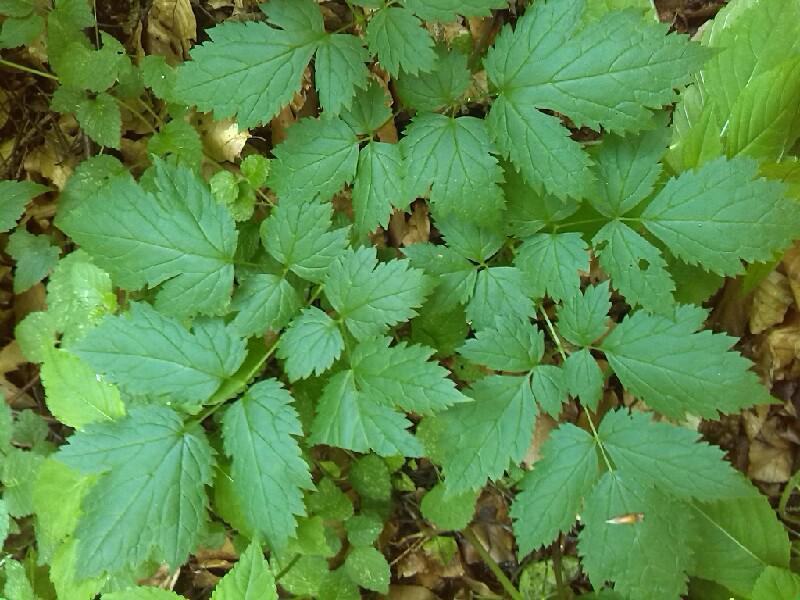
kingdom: Plantae
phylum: Tracheophyta
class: Magnoliopsida
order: Ranunculales
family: Ranunculaceae
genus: Actaea
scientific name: Actaea spicata
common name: Baneberry
